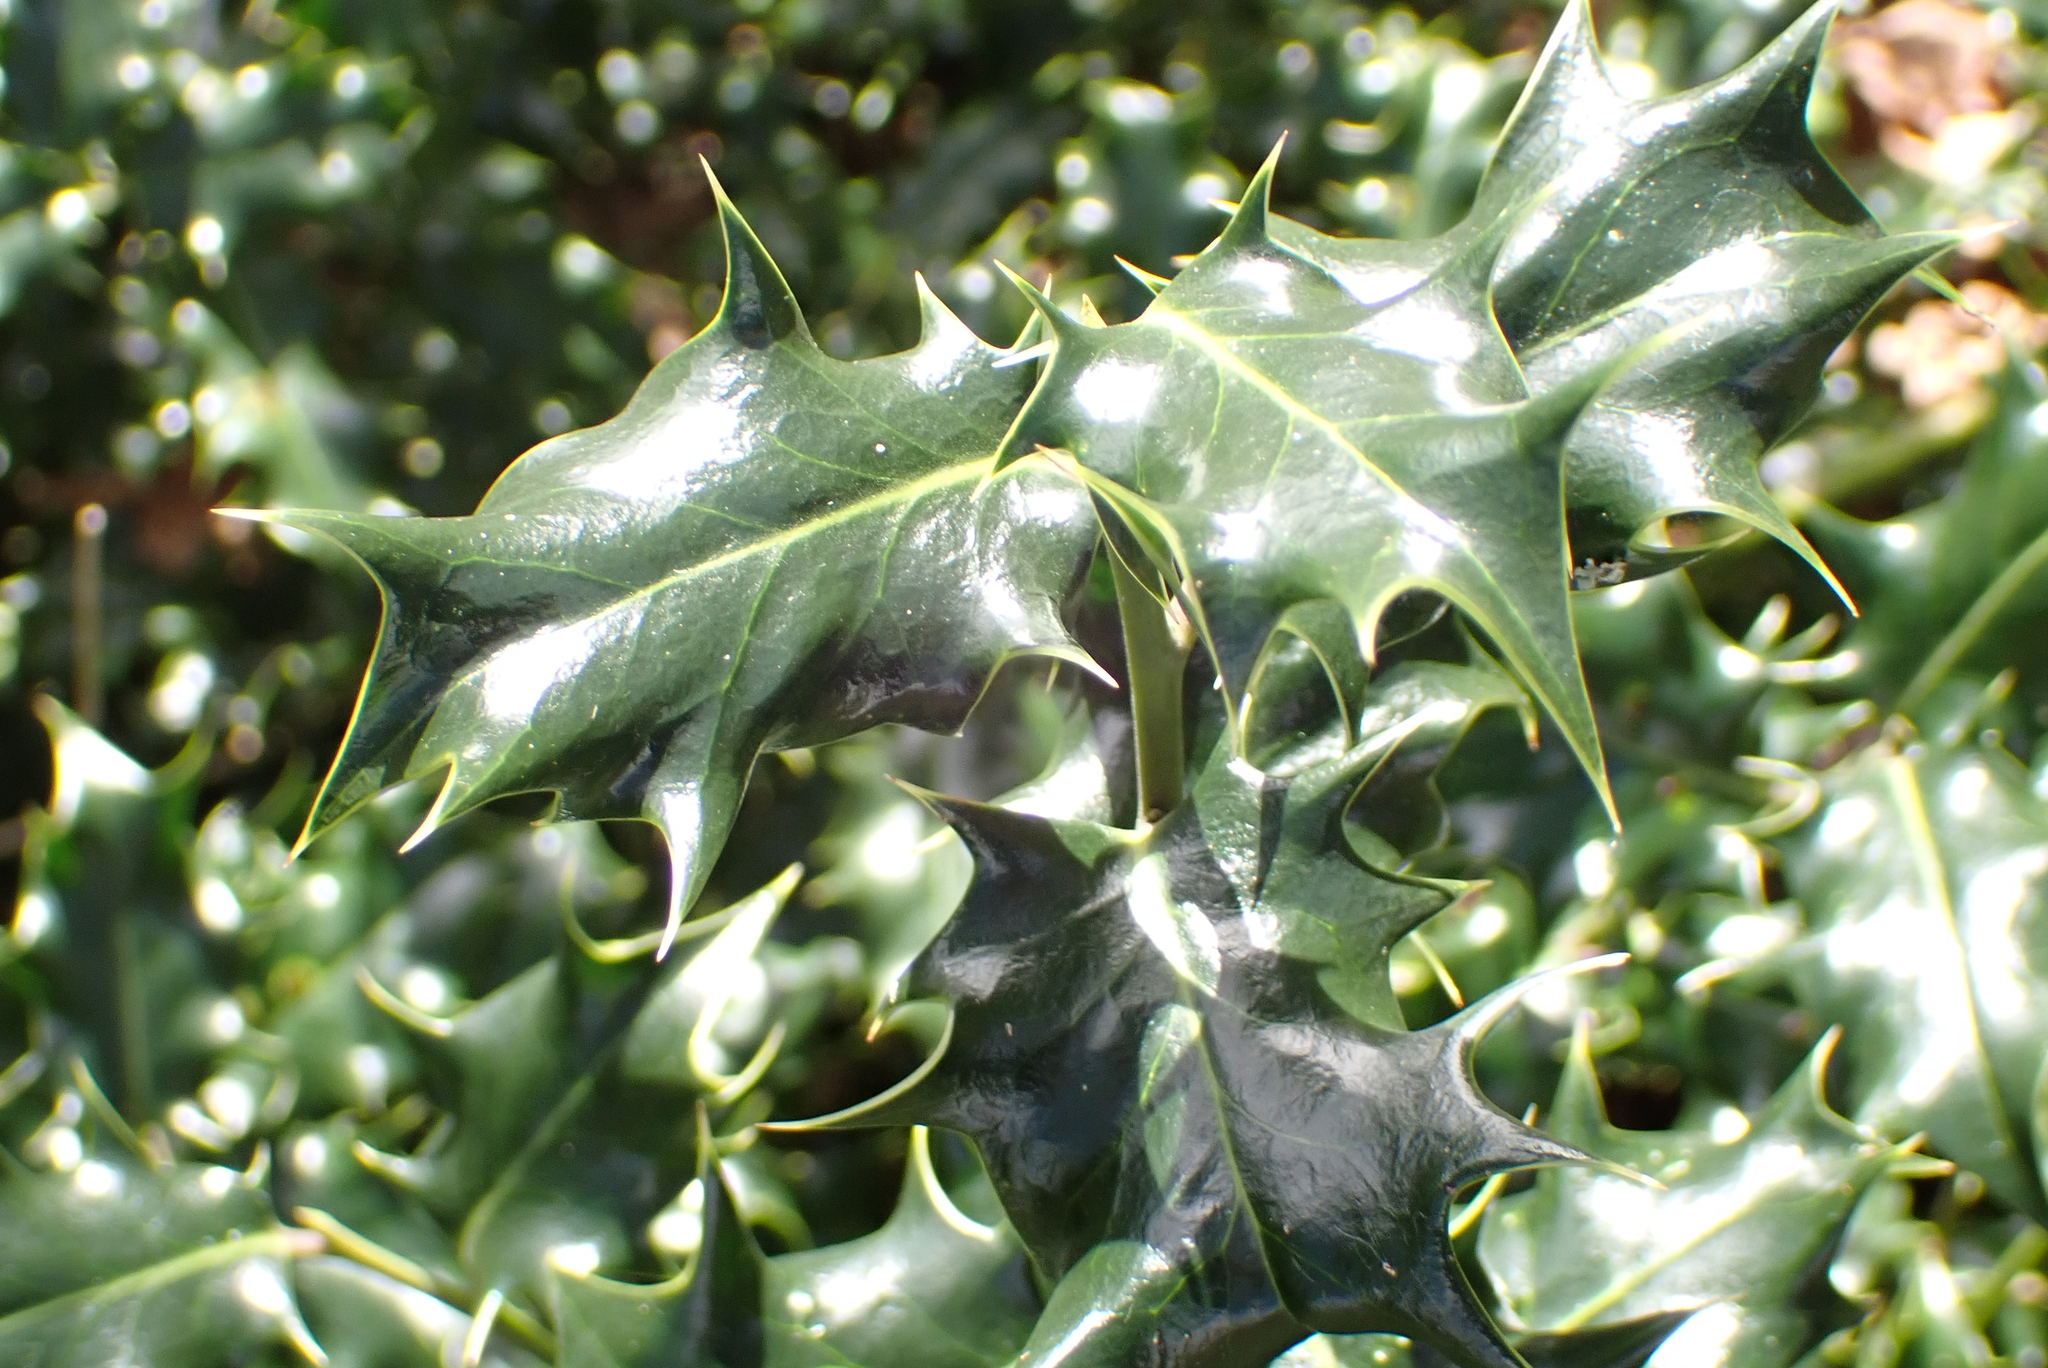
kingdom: Plantae
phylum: Tracheophyta
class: Magnoliopsida
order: Aquifoliales
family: Aquifoliaceae
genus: Ilex
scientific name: Ilex aquifolium
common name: English holly
